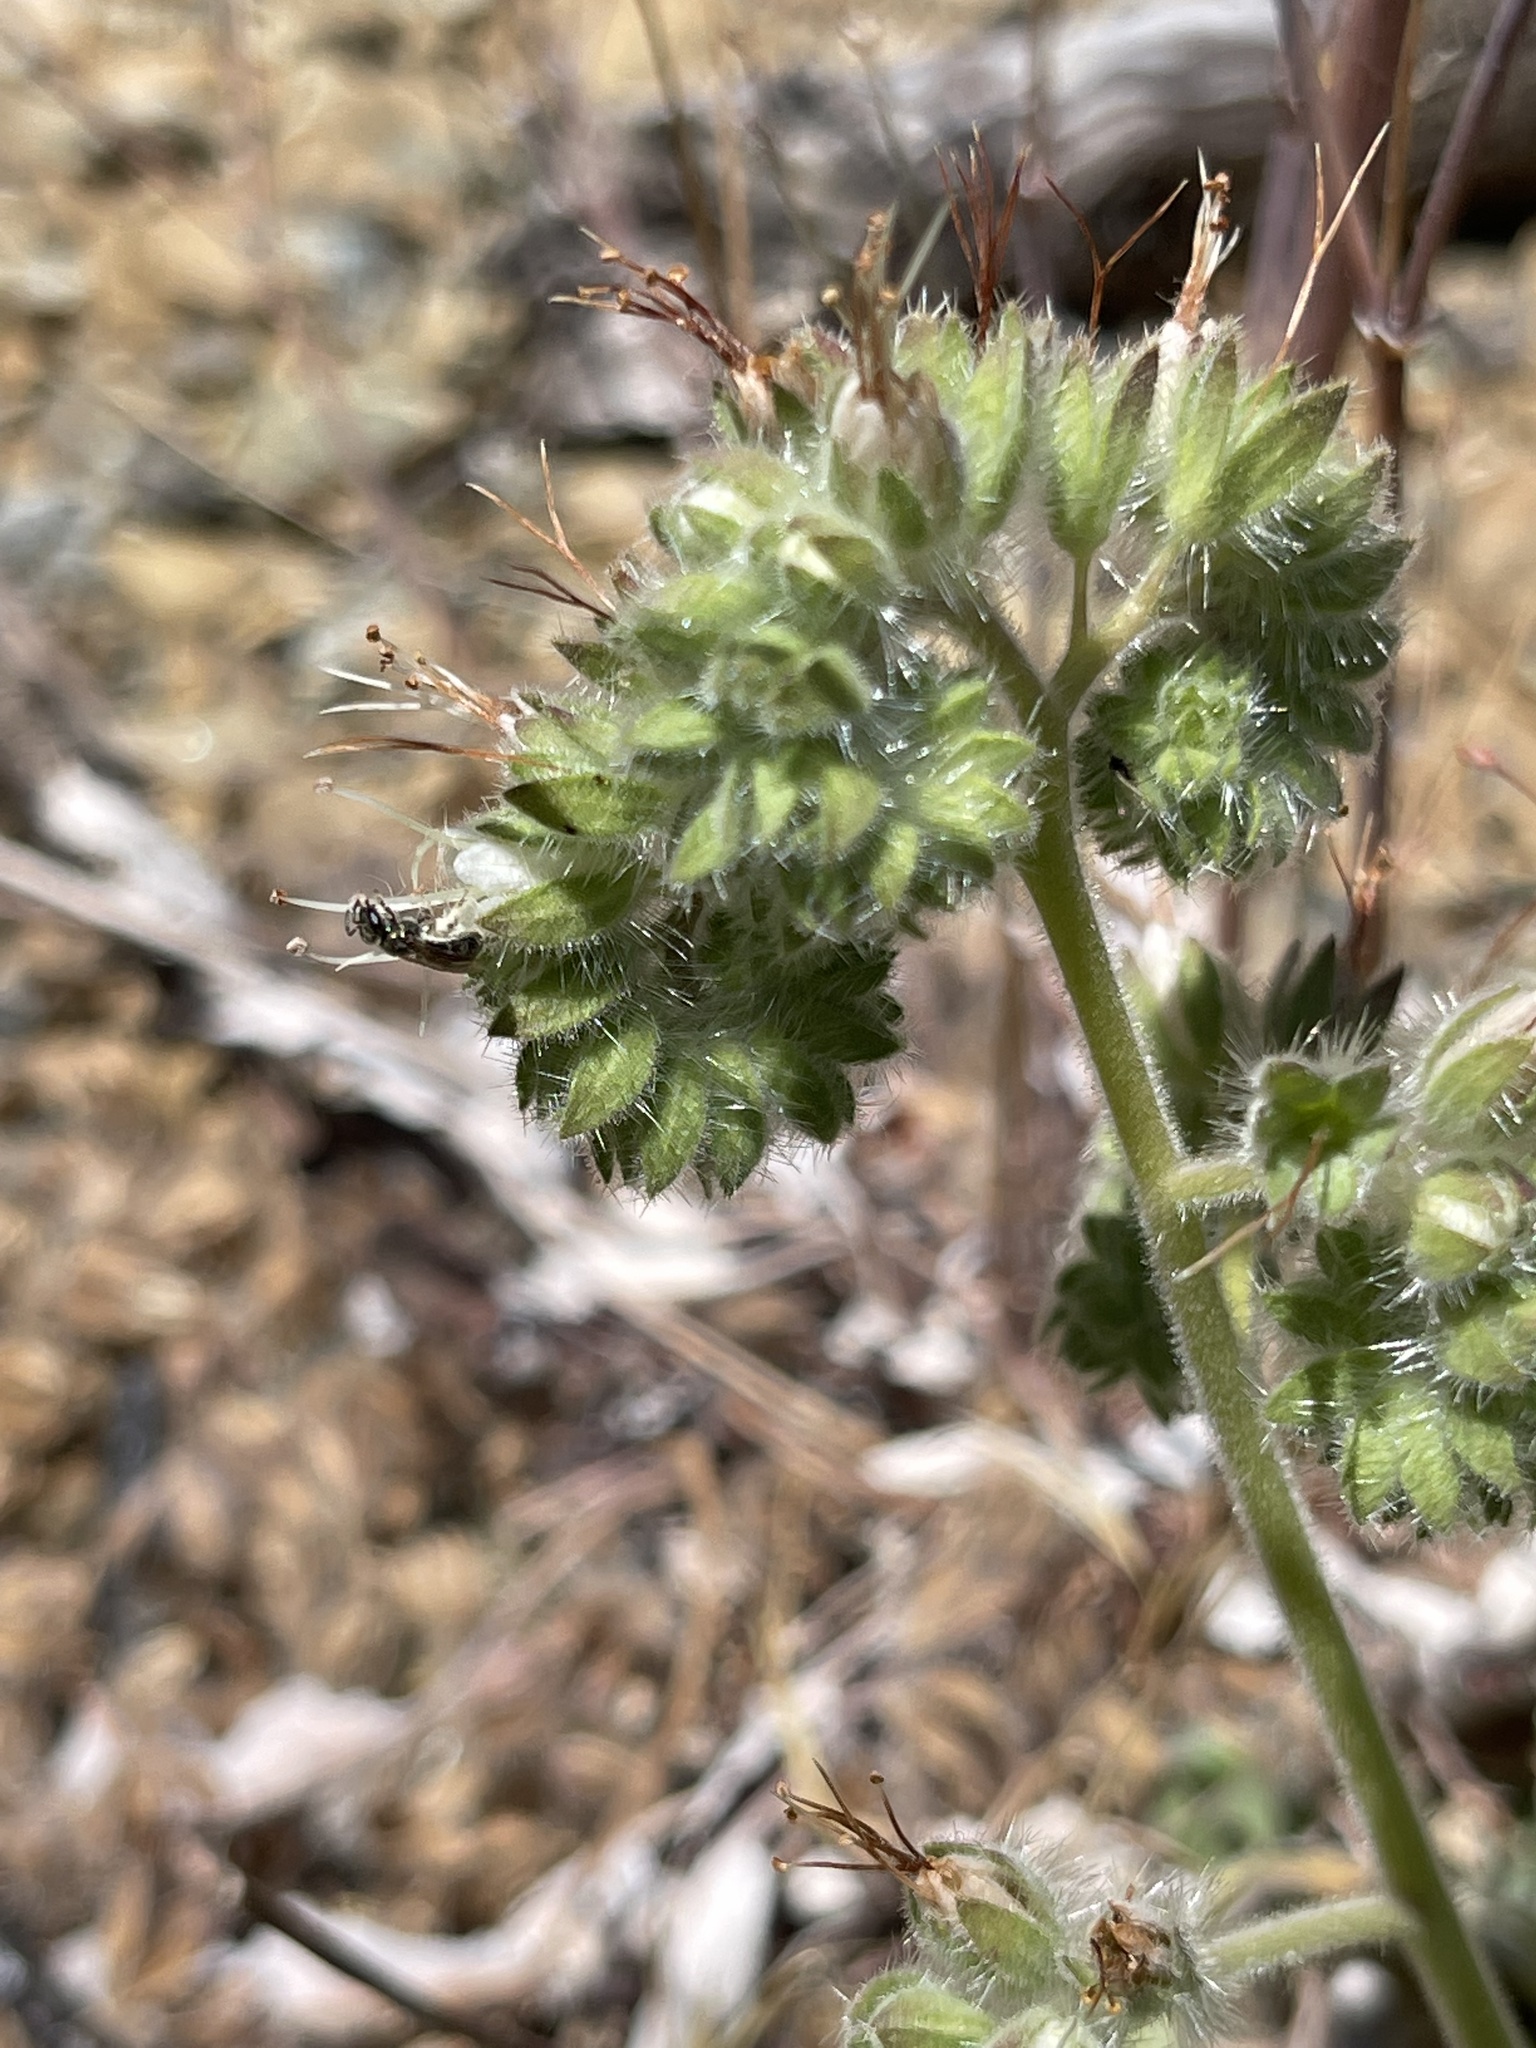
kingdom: Plantae
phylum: Tracheophyta
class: Magnoliopsida
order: Boraginales
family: Hydrophyllaceae
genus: Phacelia
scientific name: Phacelia imbricata
